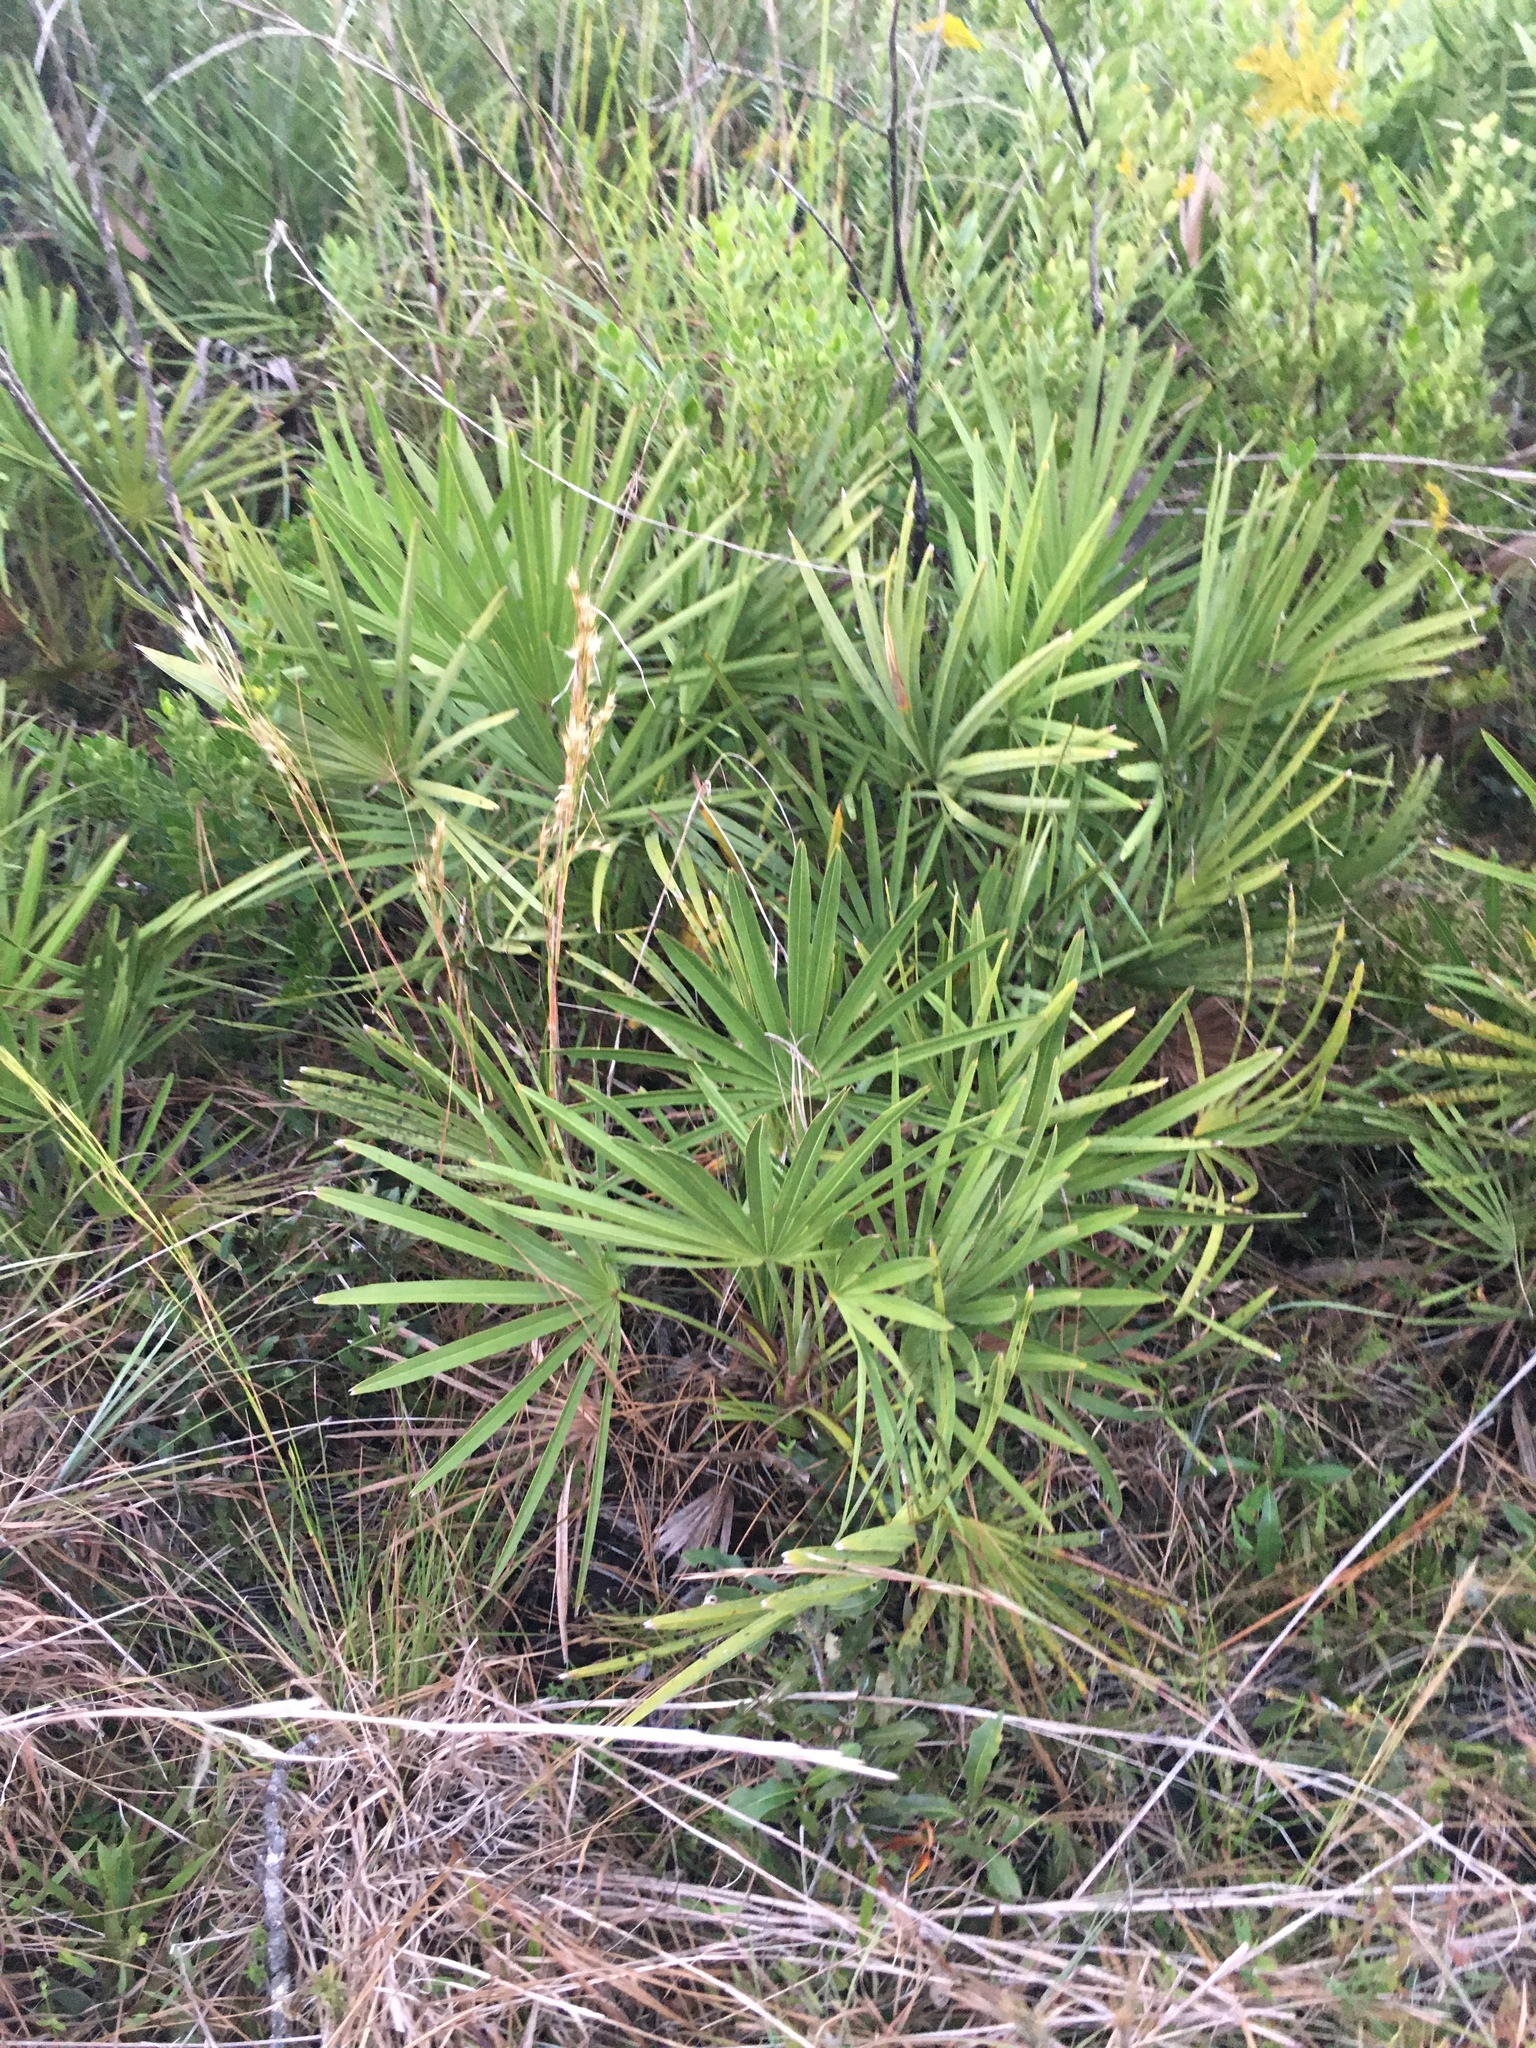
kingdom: Plantae
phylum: Tracheophyta
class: Liliopsida
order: Arecales
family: Arecaceae
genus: Serenoa
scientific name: Serenoa repens
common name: Saw-palmetto
